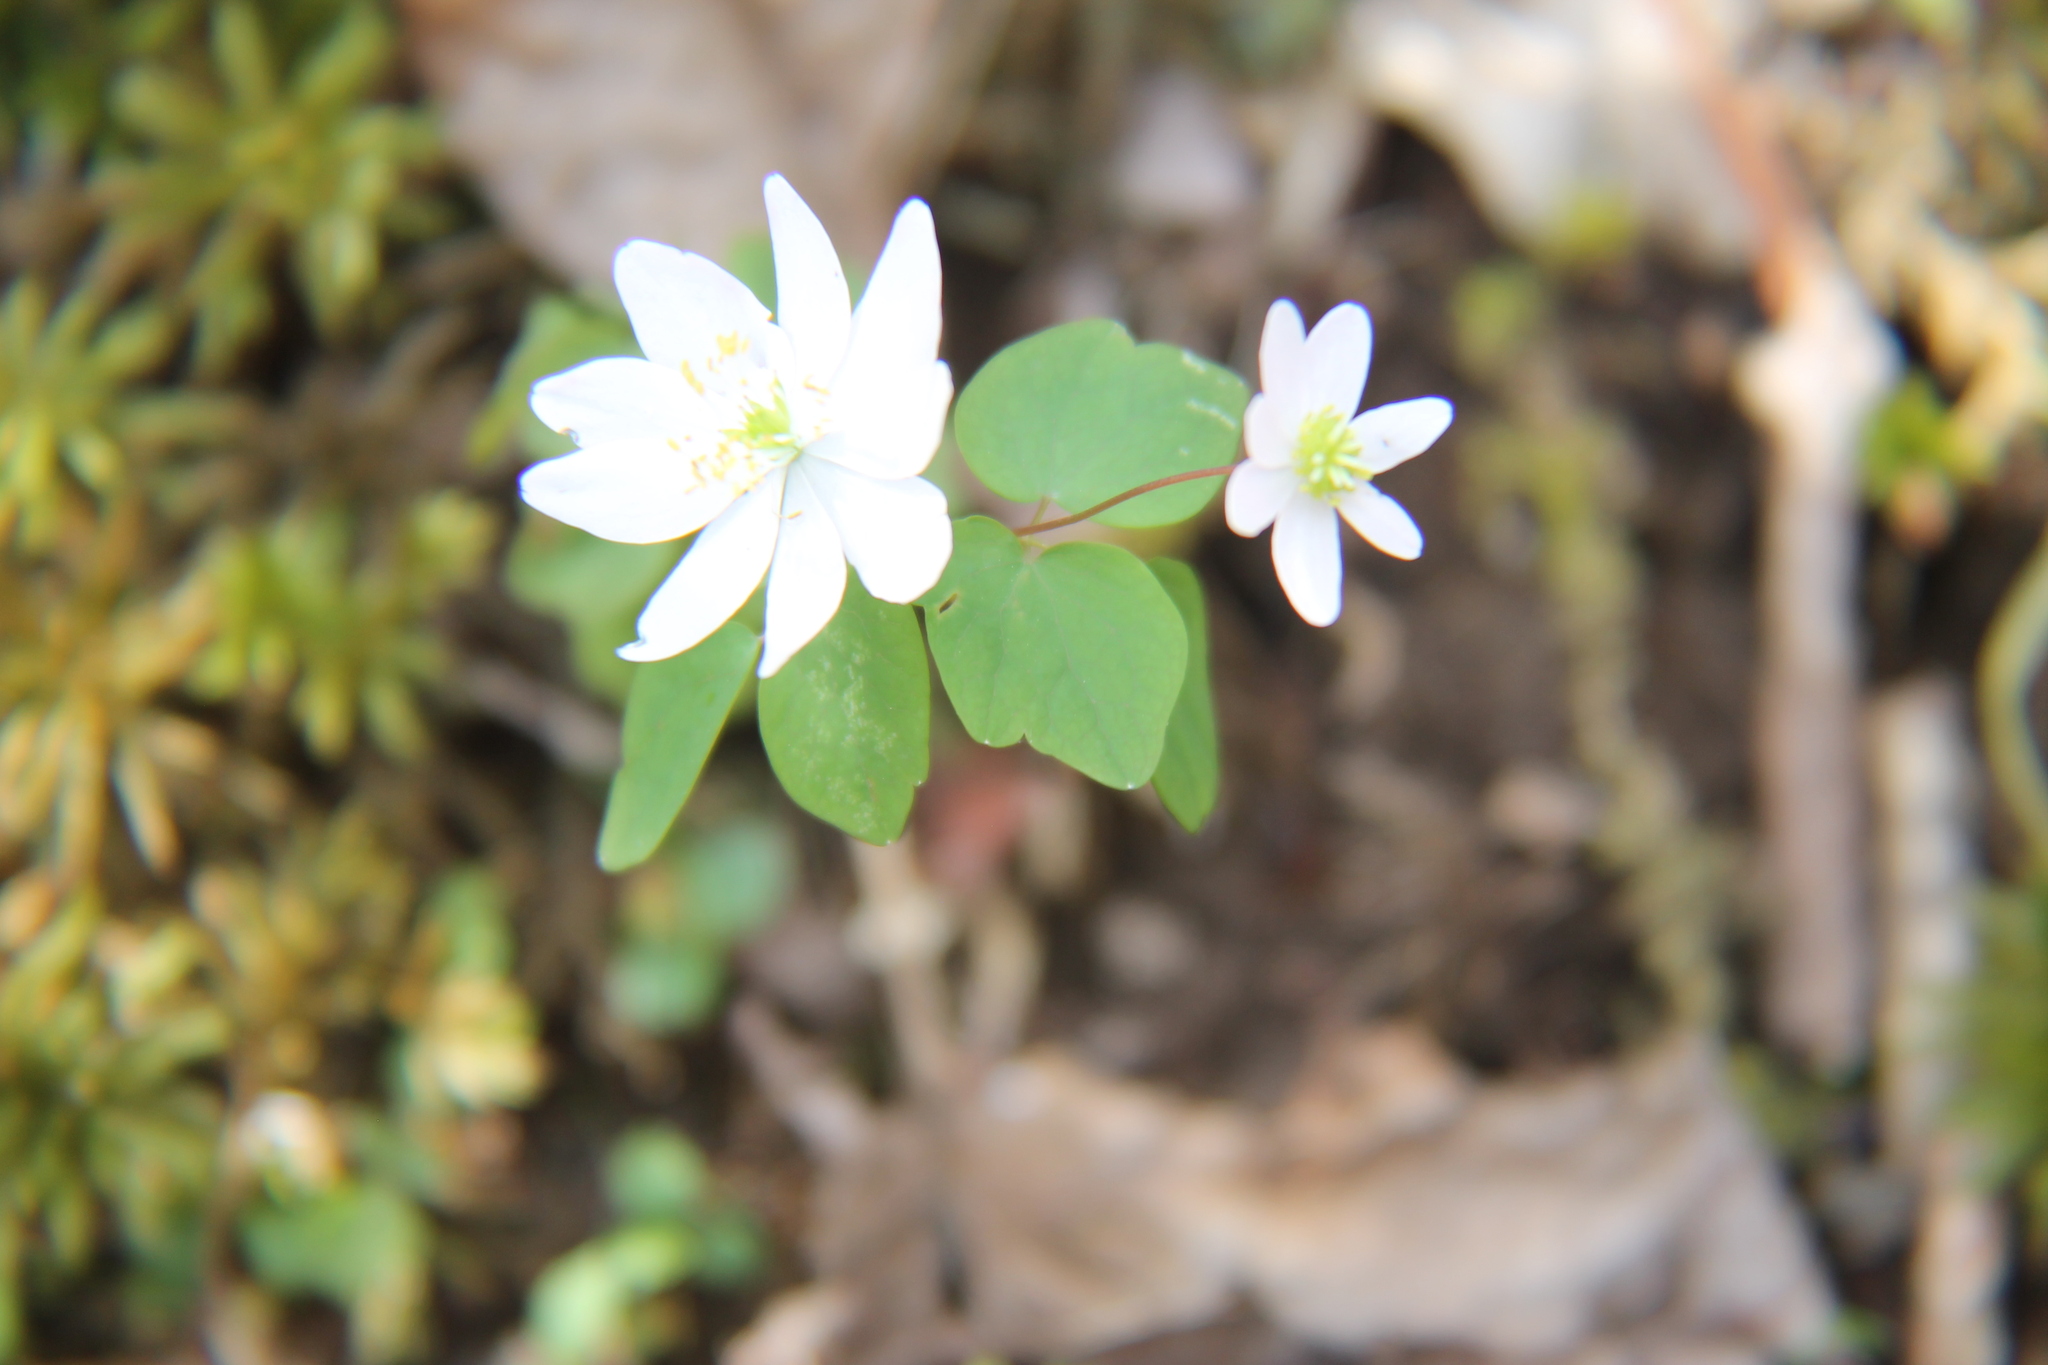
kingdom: Plantae
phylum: Tracheophyta
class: Magnoliopsida
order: Ranunculales
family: Ranunculaceae
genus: Thalictrum
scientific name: Thalictrum thalictroides
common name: Rue-anemone
